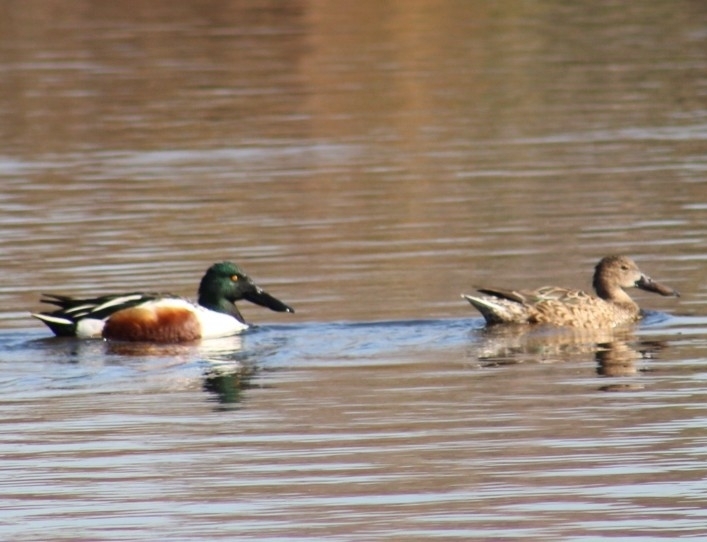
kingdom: Animalia
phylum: Chordata
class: Aves
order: Anseriformes
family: Anatidae
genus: Spatula
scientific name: Spatula clypeata
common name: Northern shoveler
